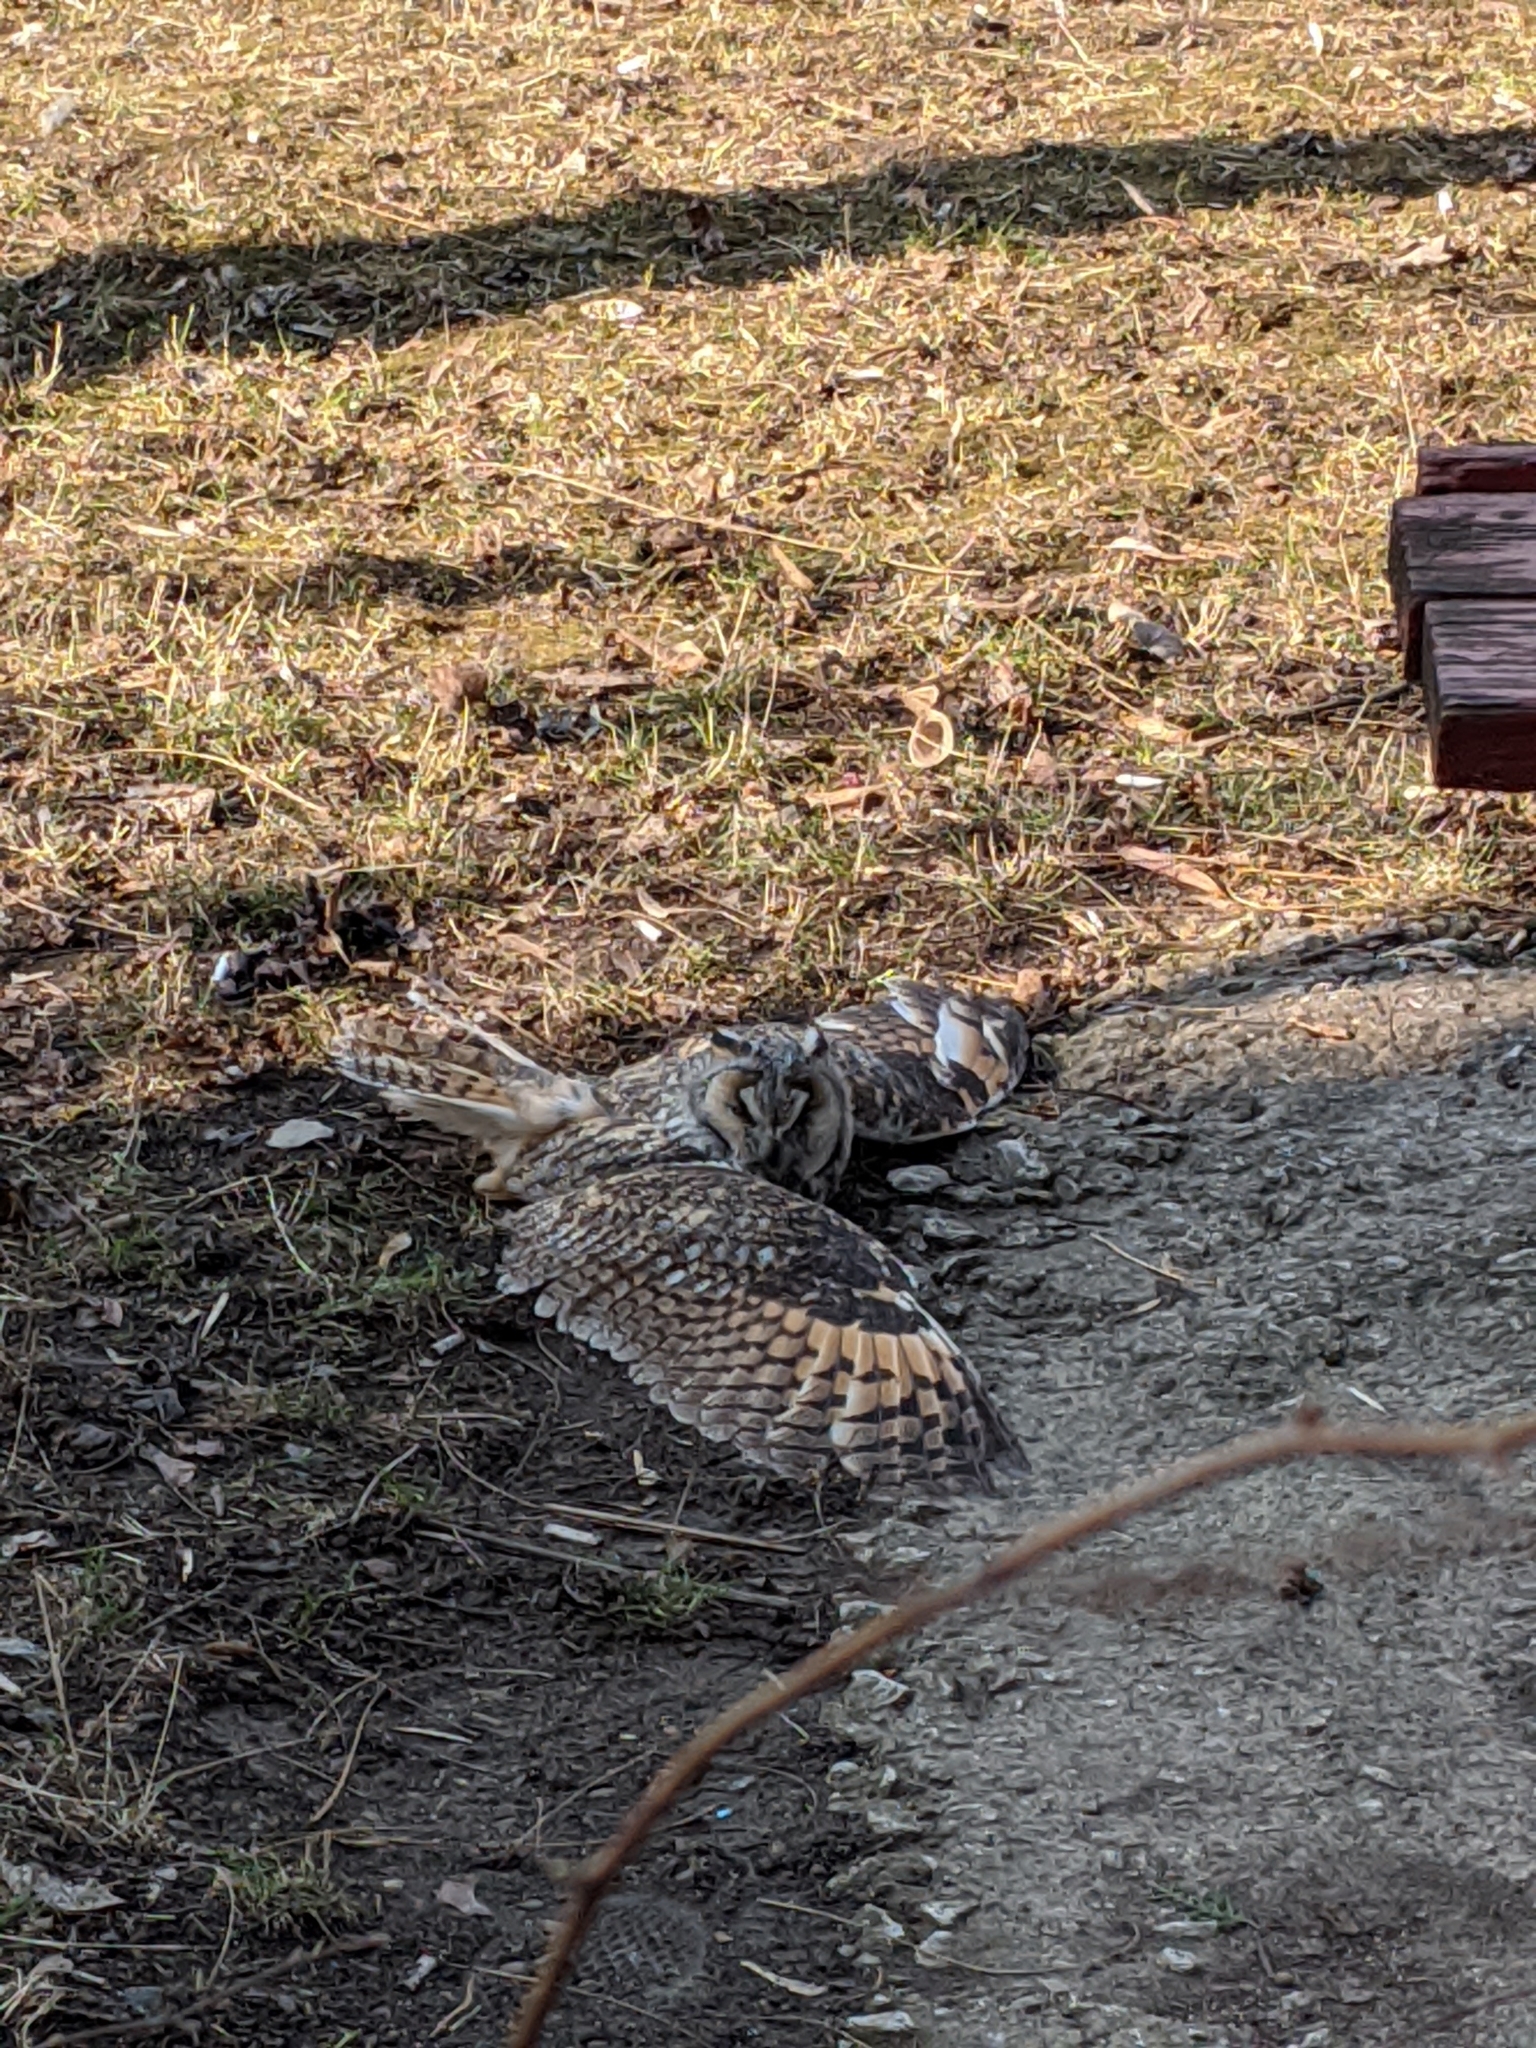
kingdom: Animalia
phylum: Chordata
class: Aves
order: Strigiformes
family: Strigidae
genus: Asio
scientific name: Asio otus
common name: Long-eared owl
